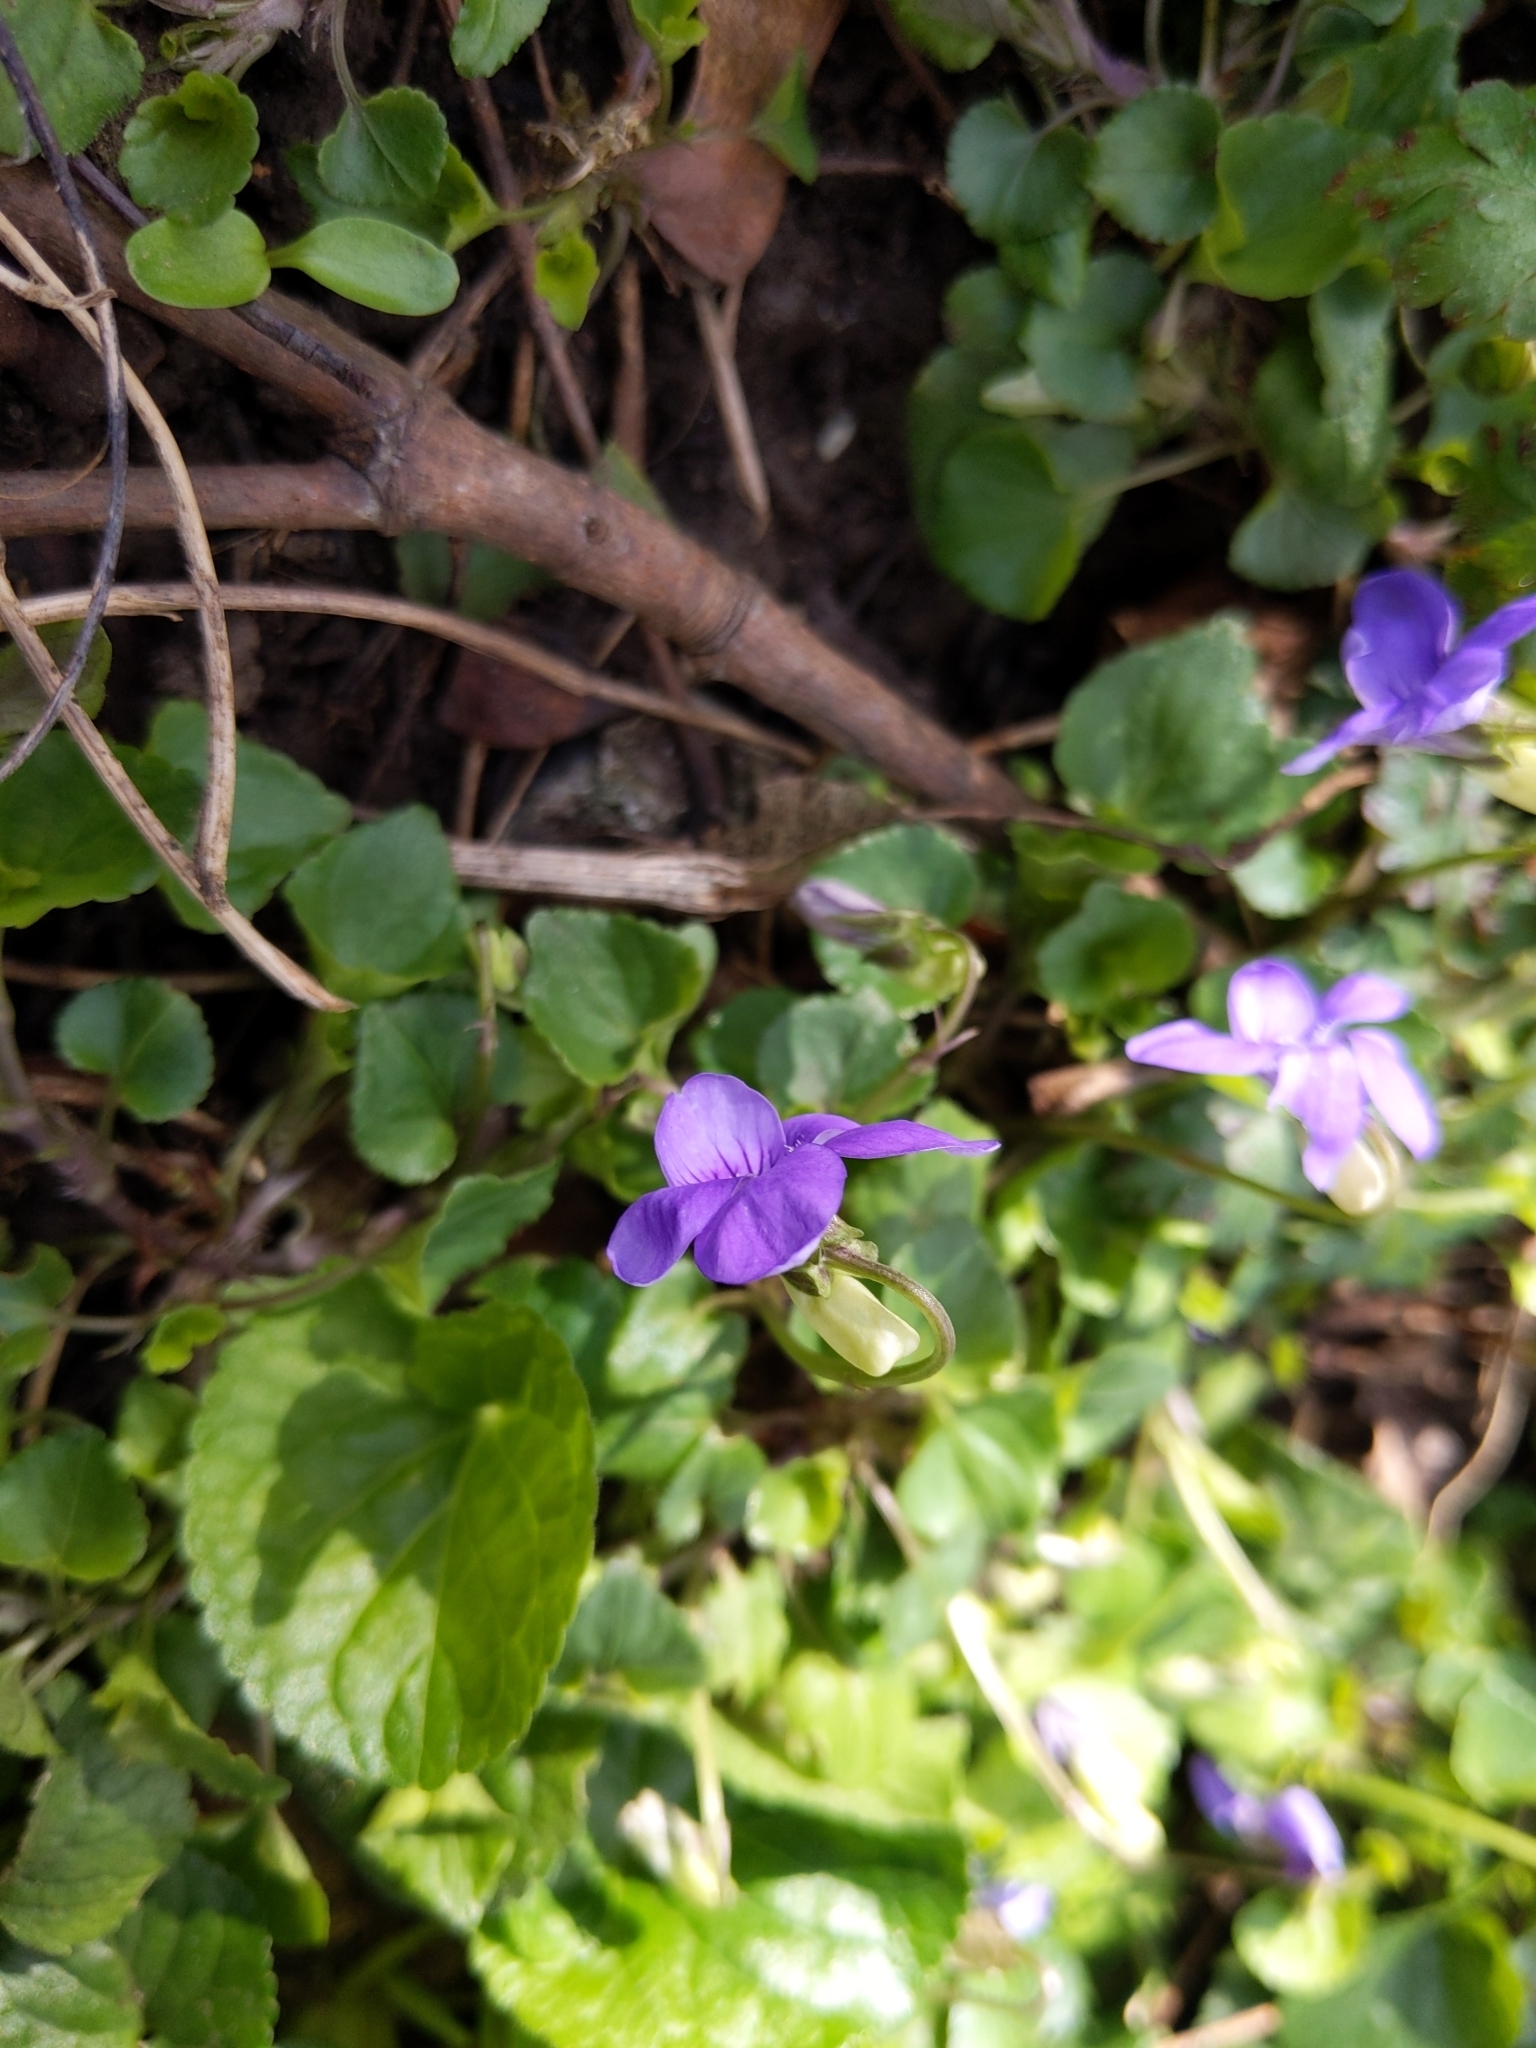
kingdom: Plantae
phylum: Tracheophyta
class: Magnoliopsida
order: Malpighiales
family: Violaceae
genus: Viola
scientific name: Viola riviniana
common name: Common dog-violet
